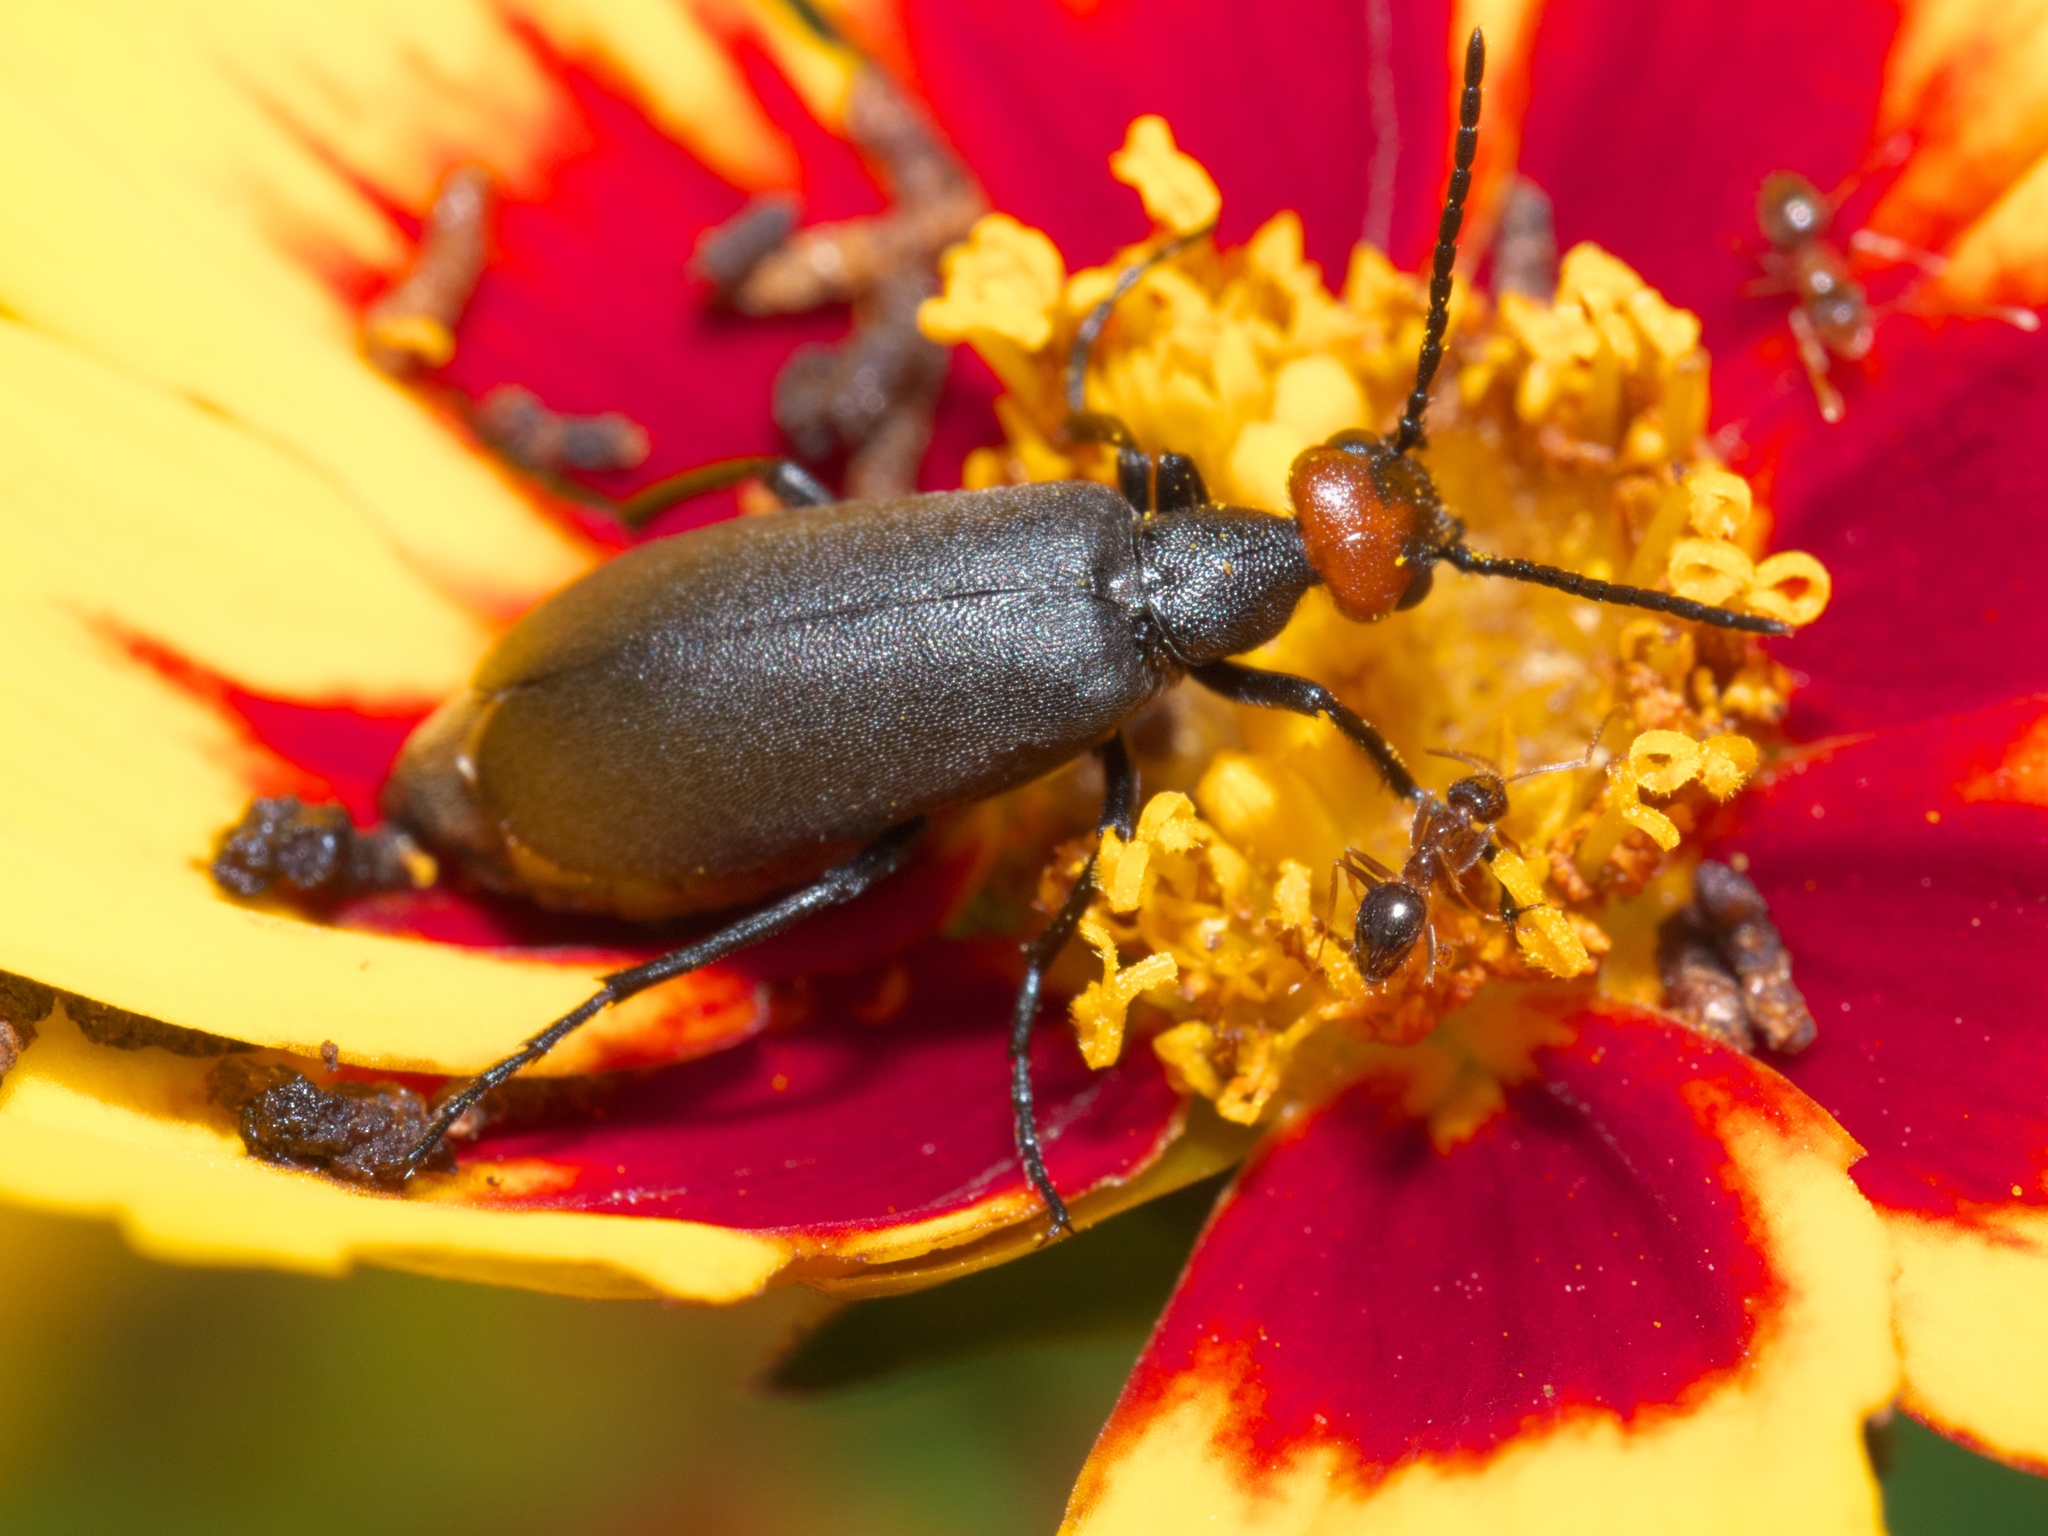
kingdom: Animalia
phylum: Arthropoda
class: Insecta
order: Coleoptera
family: Meloidae
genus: Epicauta
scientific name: Epicauta atrata
